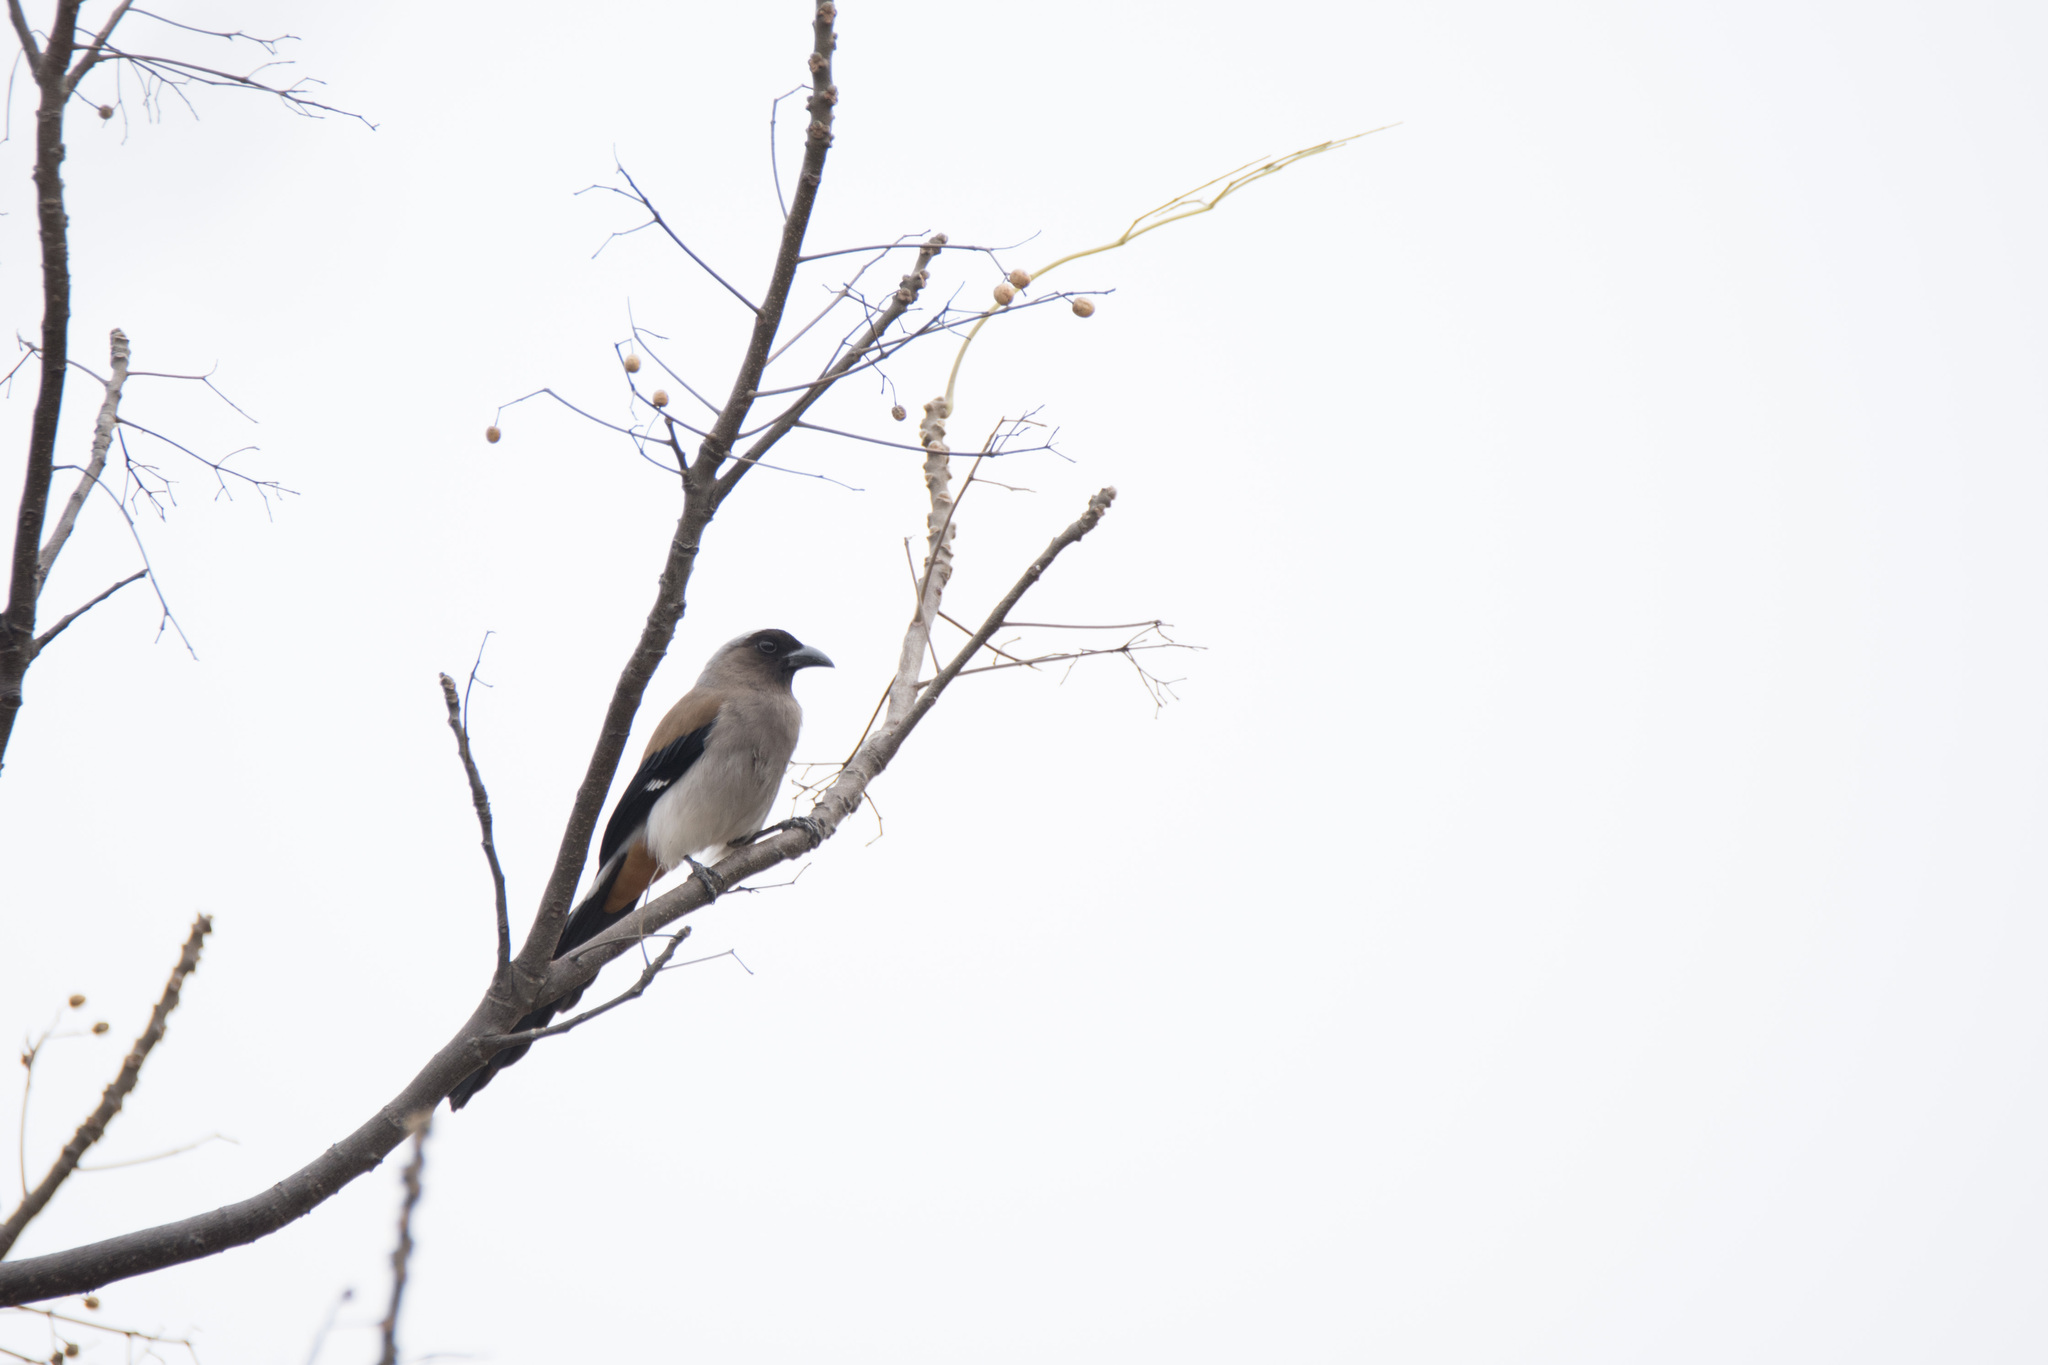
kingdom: Animalia
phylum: Chordata
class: Aves
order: Passeriformes
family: Corvidae
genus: Dendrocitta
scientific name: Dendrocitta formosae
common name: Grey treepie
